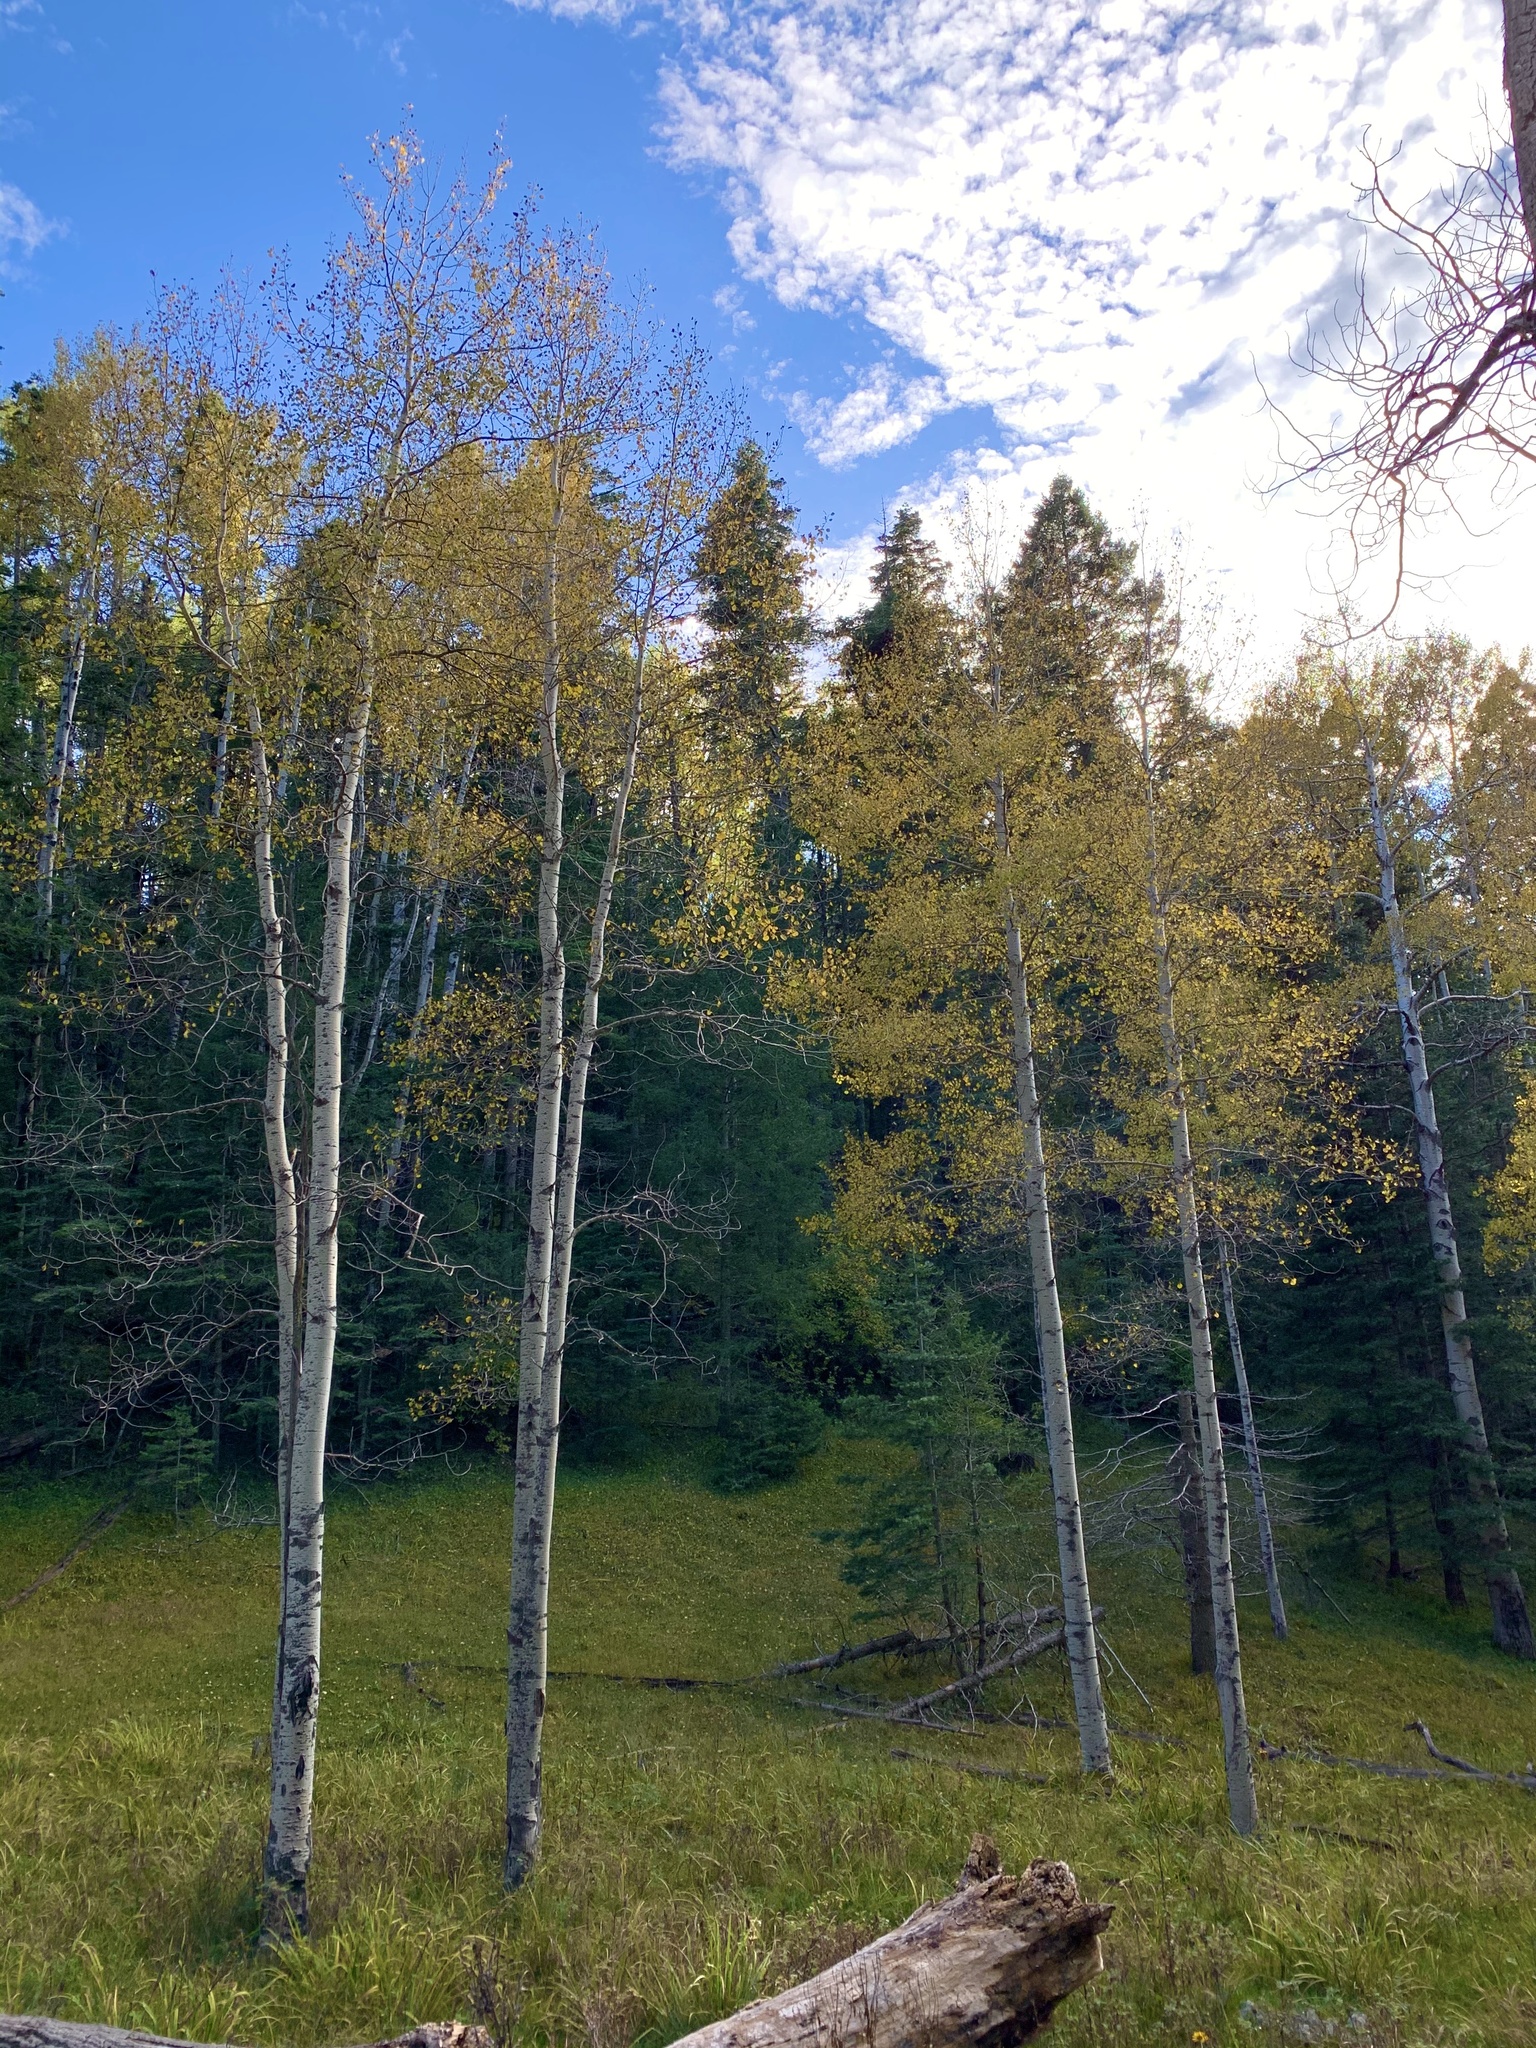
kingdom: Plantae
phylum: Tracheophyta
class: Magnoliopsida
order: Malpighiales
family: Salicaceae
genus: Populus
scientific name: Populus tremuloides
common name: Quaking aspen
